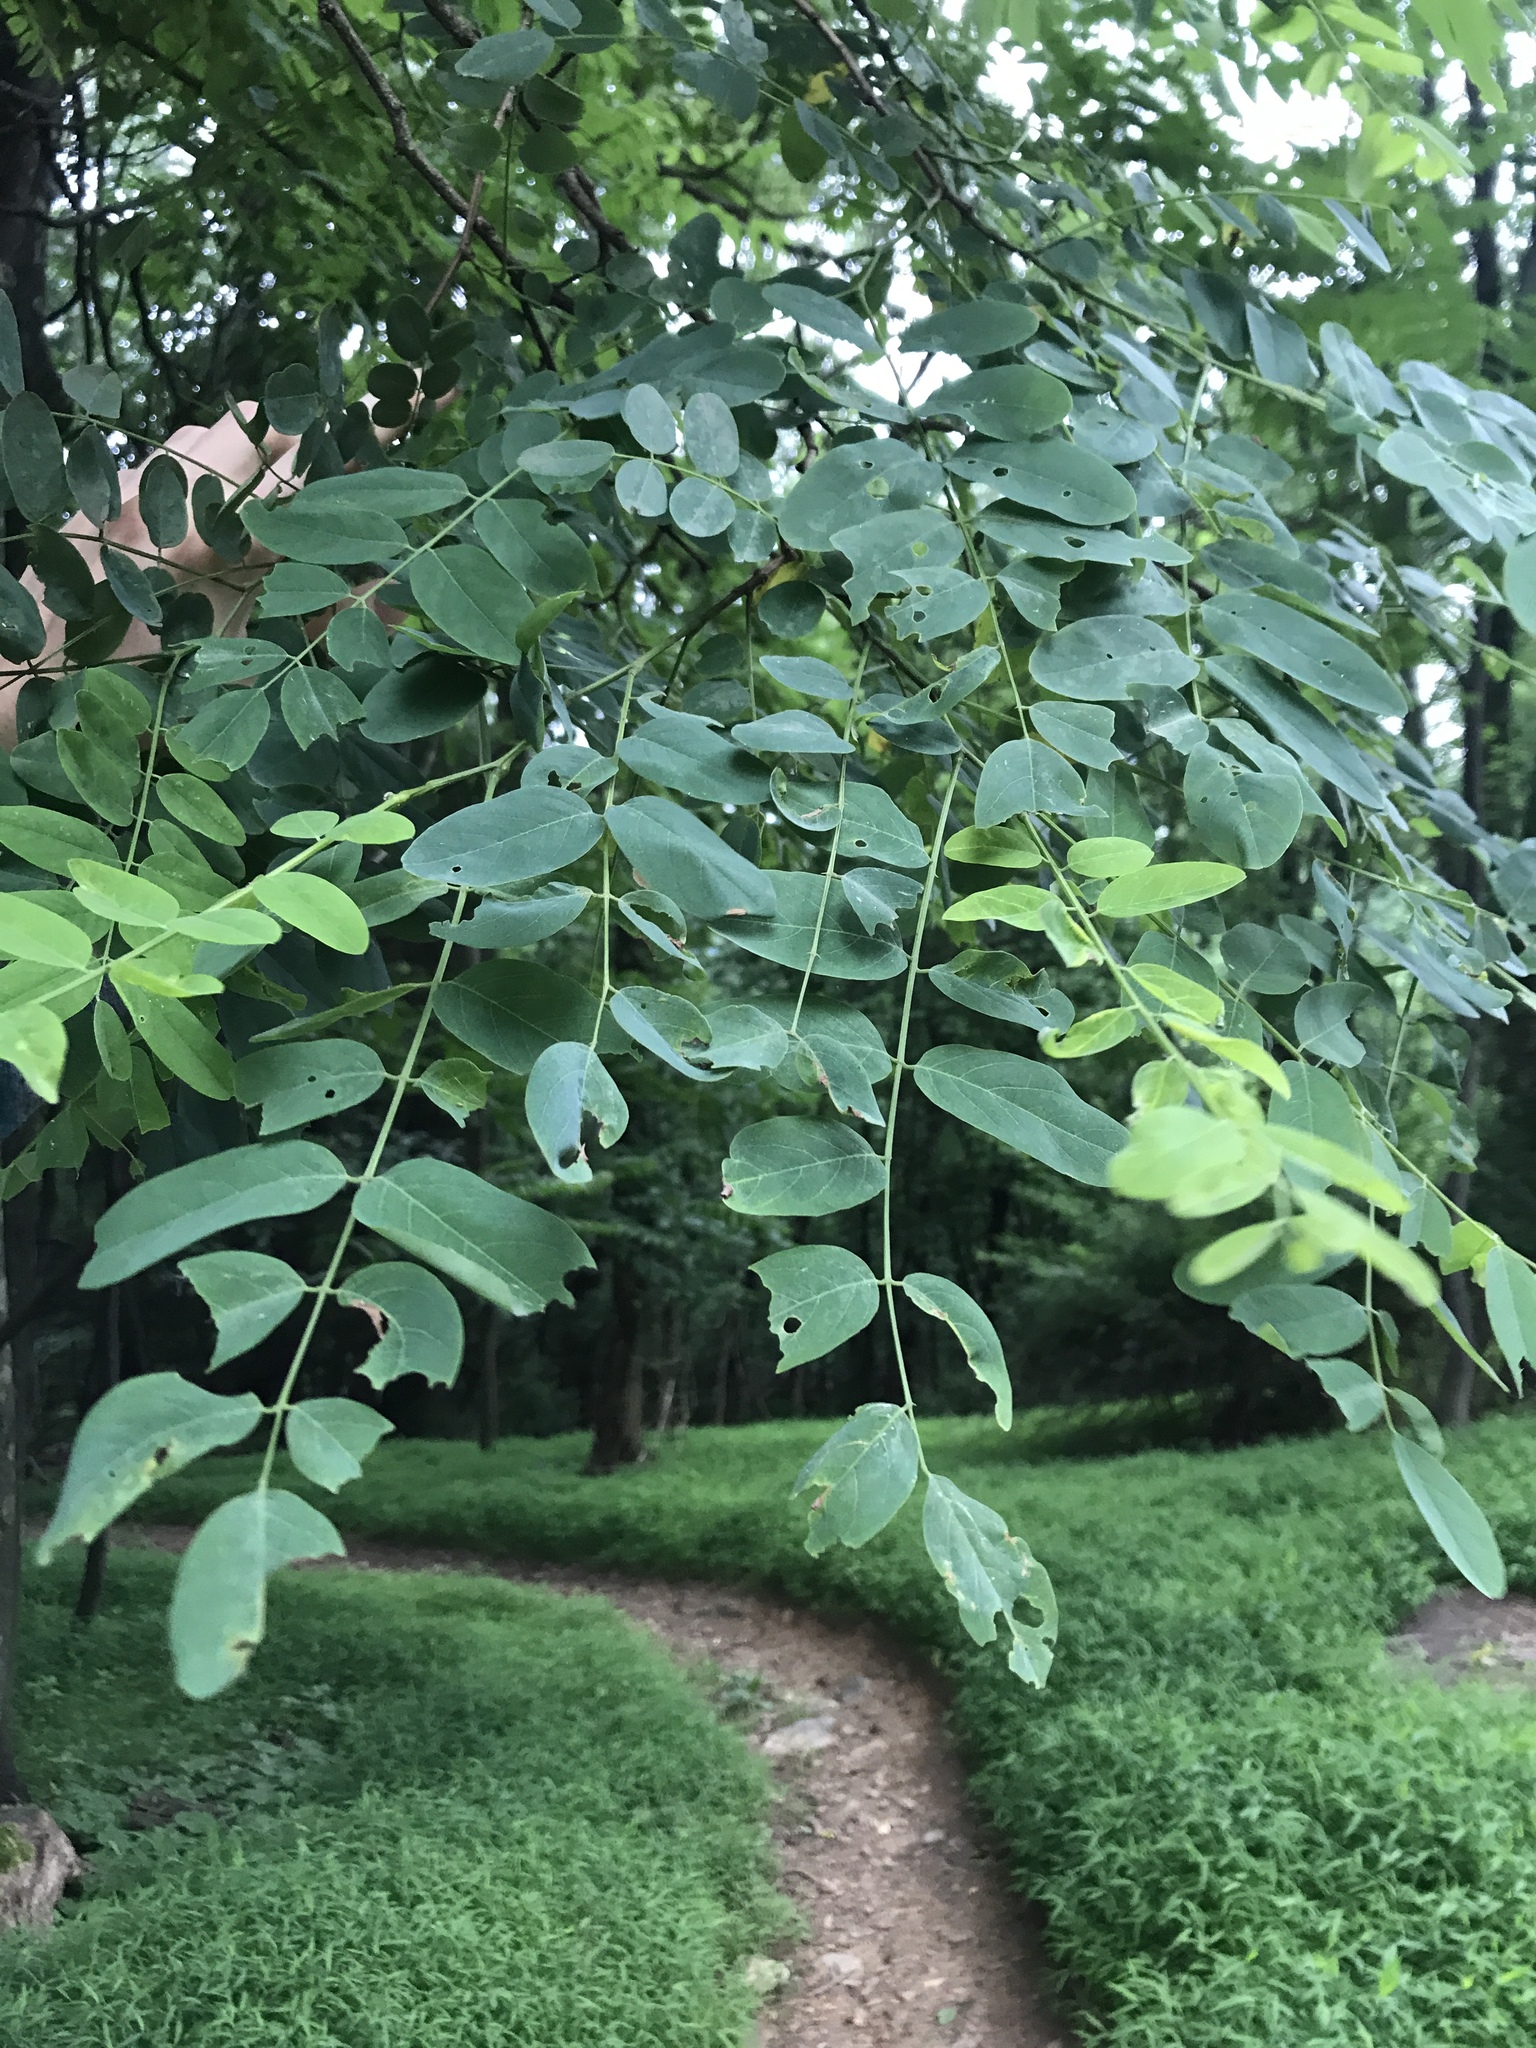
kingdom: Plantae
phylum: Tracheophyta
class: Magnoliopsida
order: Fabales
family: Fabaceae
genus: Robinia
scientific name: Robinia pseudoacacia
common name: Black locust
